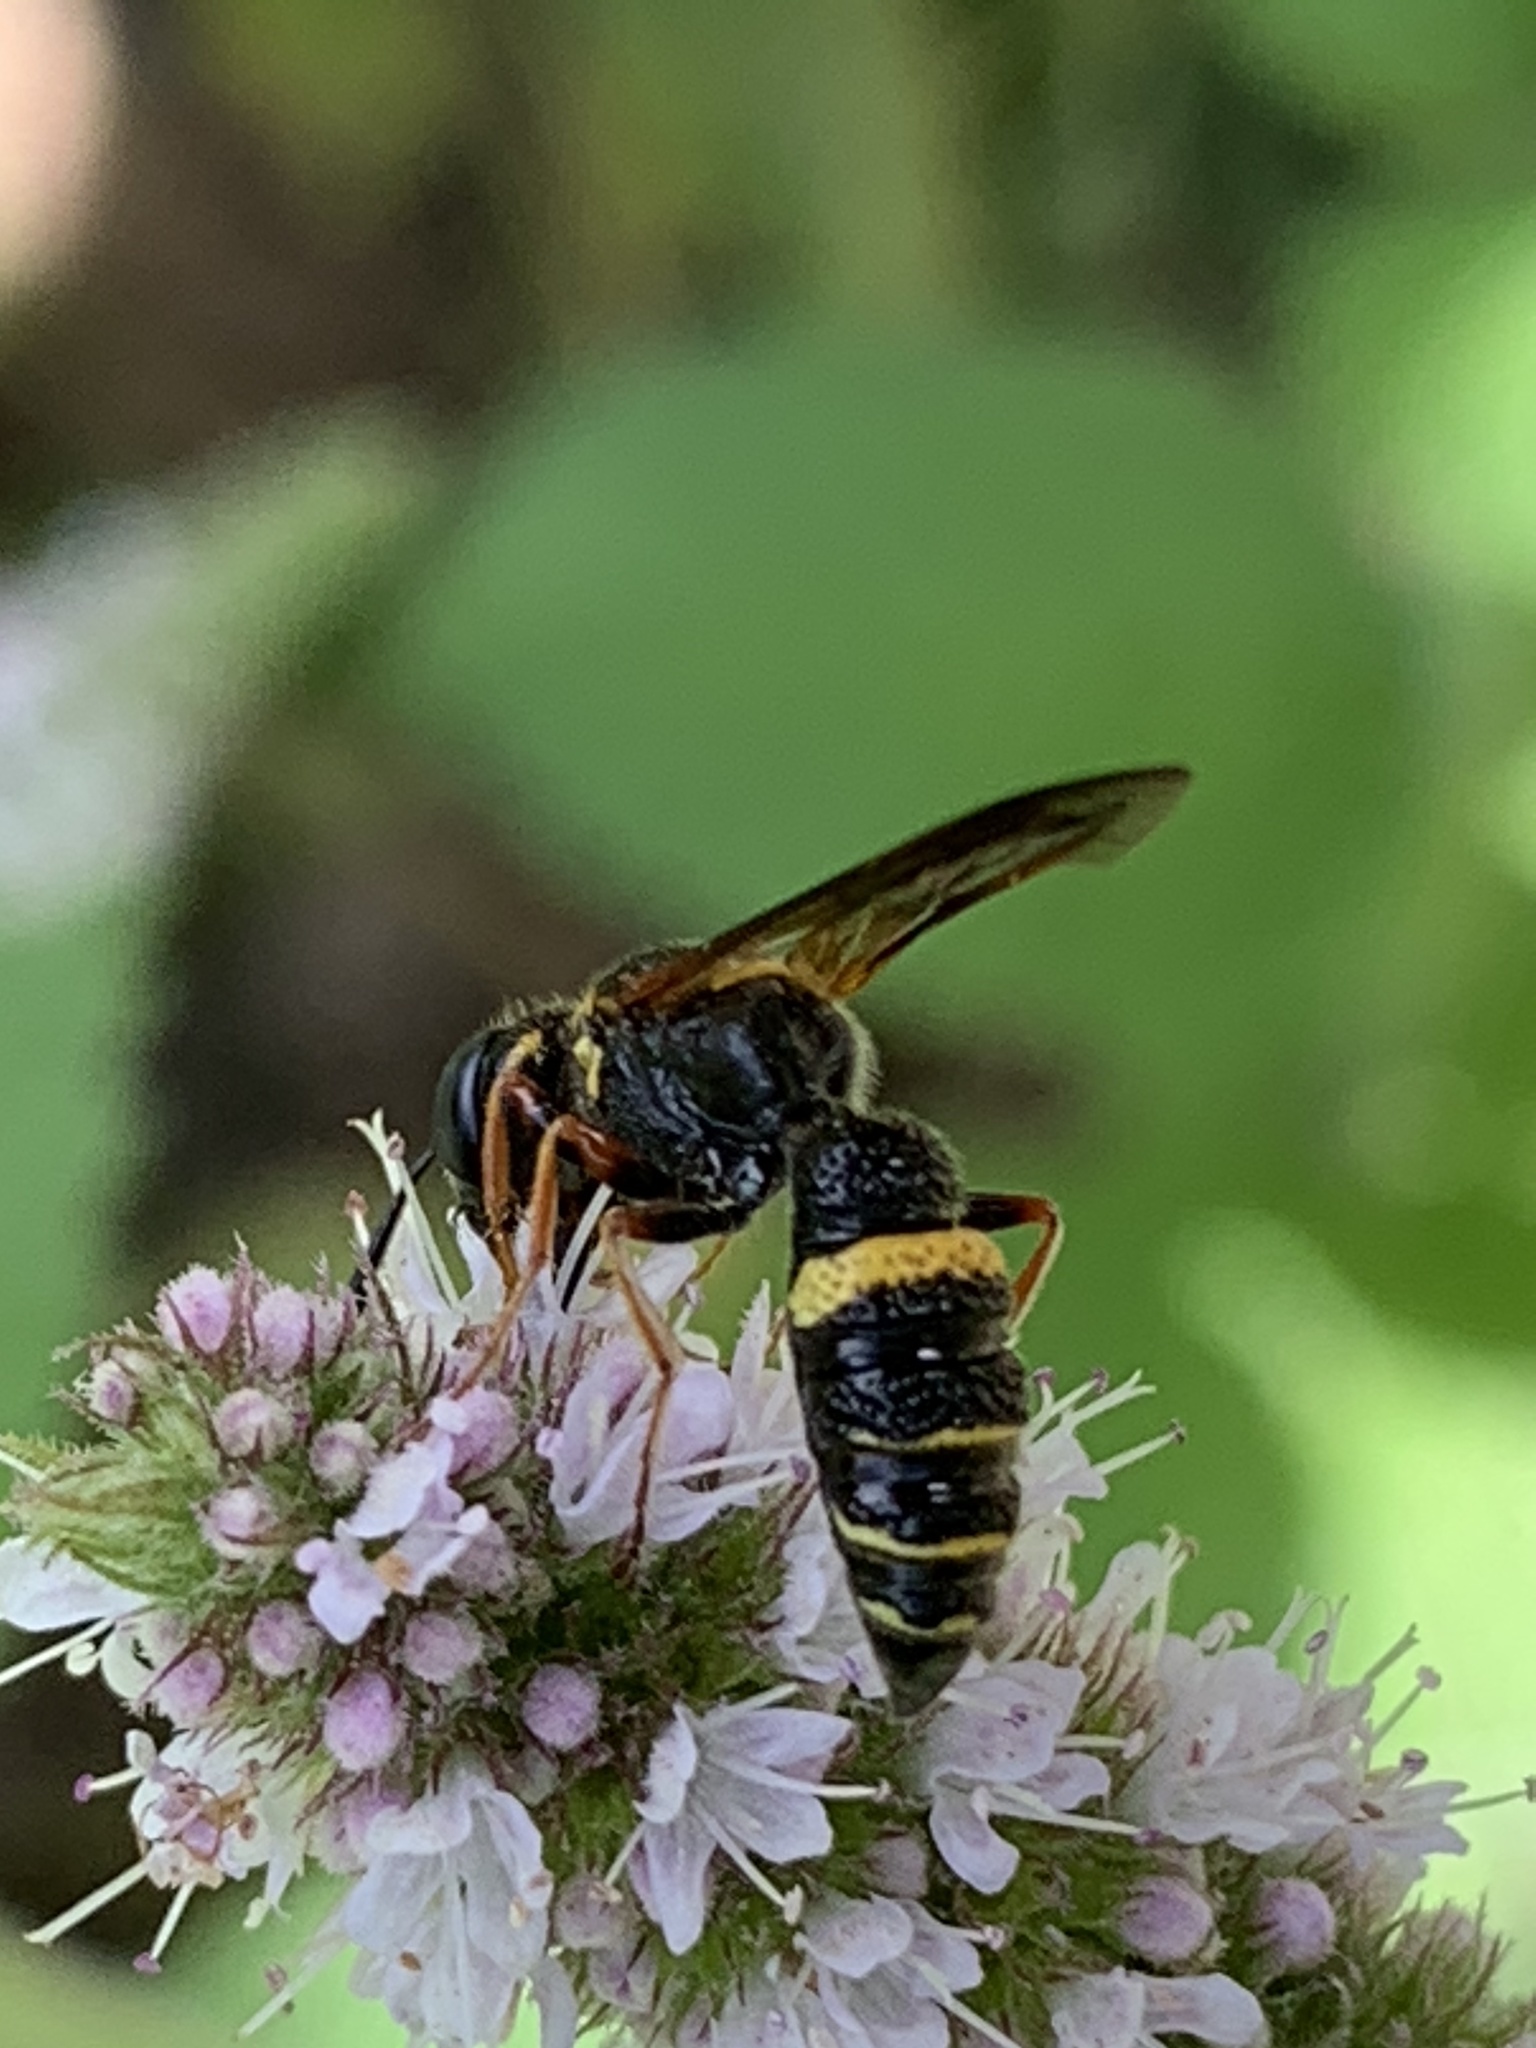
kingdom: Animalia
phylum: Arthropoda
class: Insecta
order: Hymenoptera
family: Crabronidae
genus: Philanthus
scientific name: Philanthus gibbosus
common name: Humped beewolf
